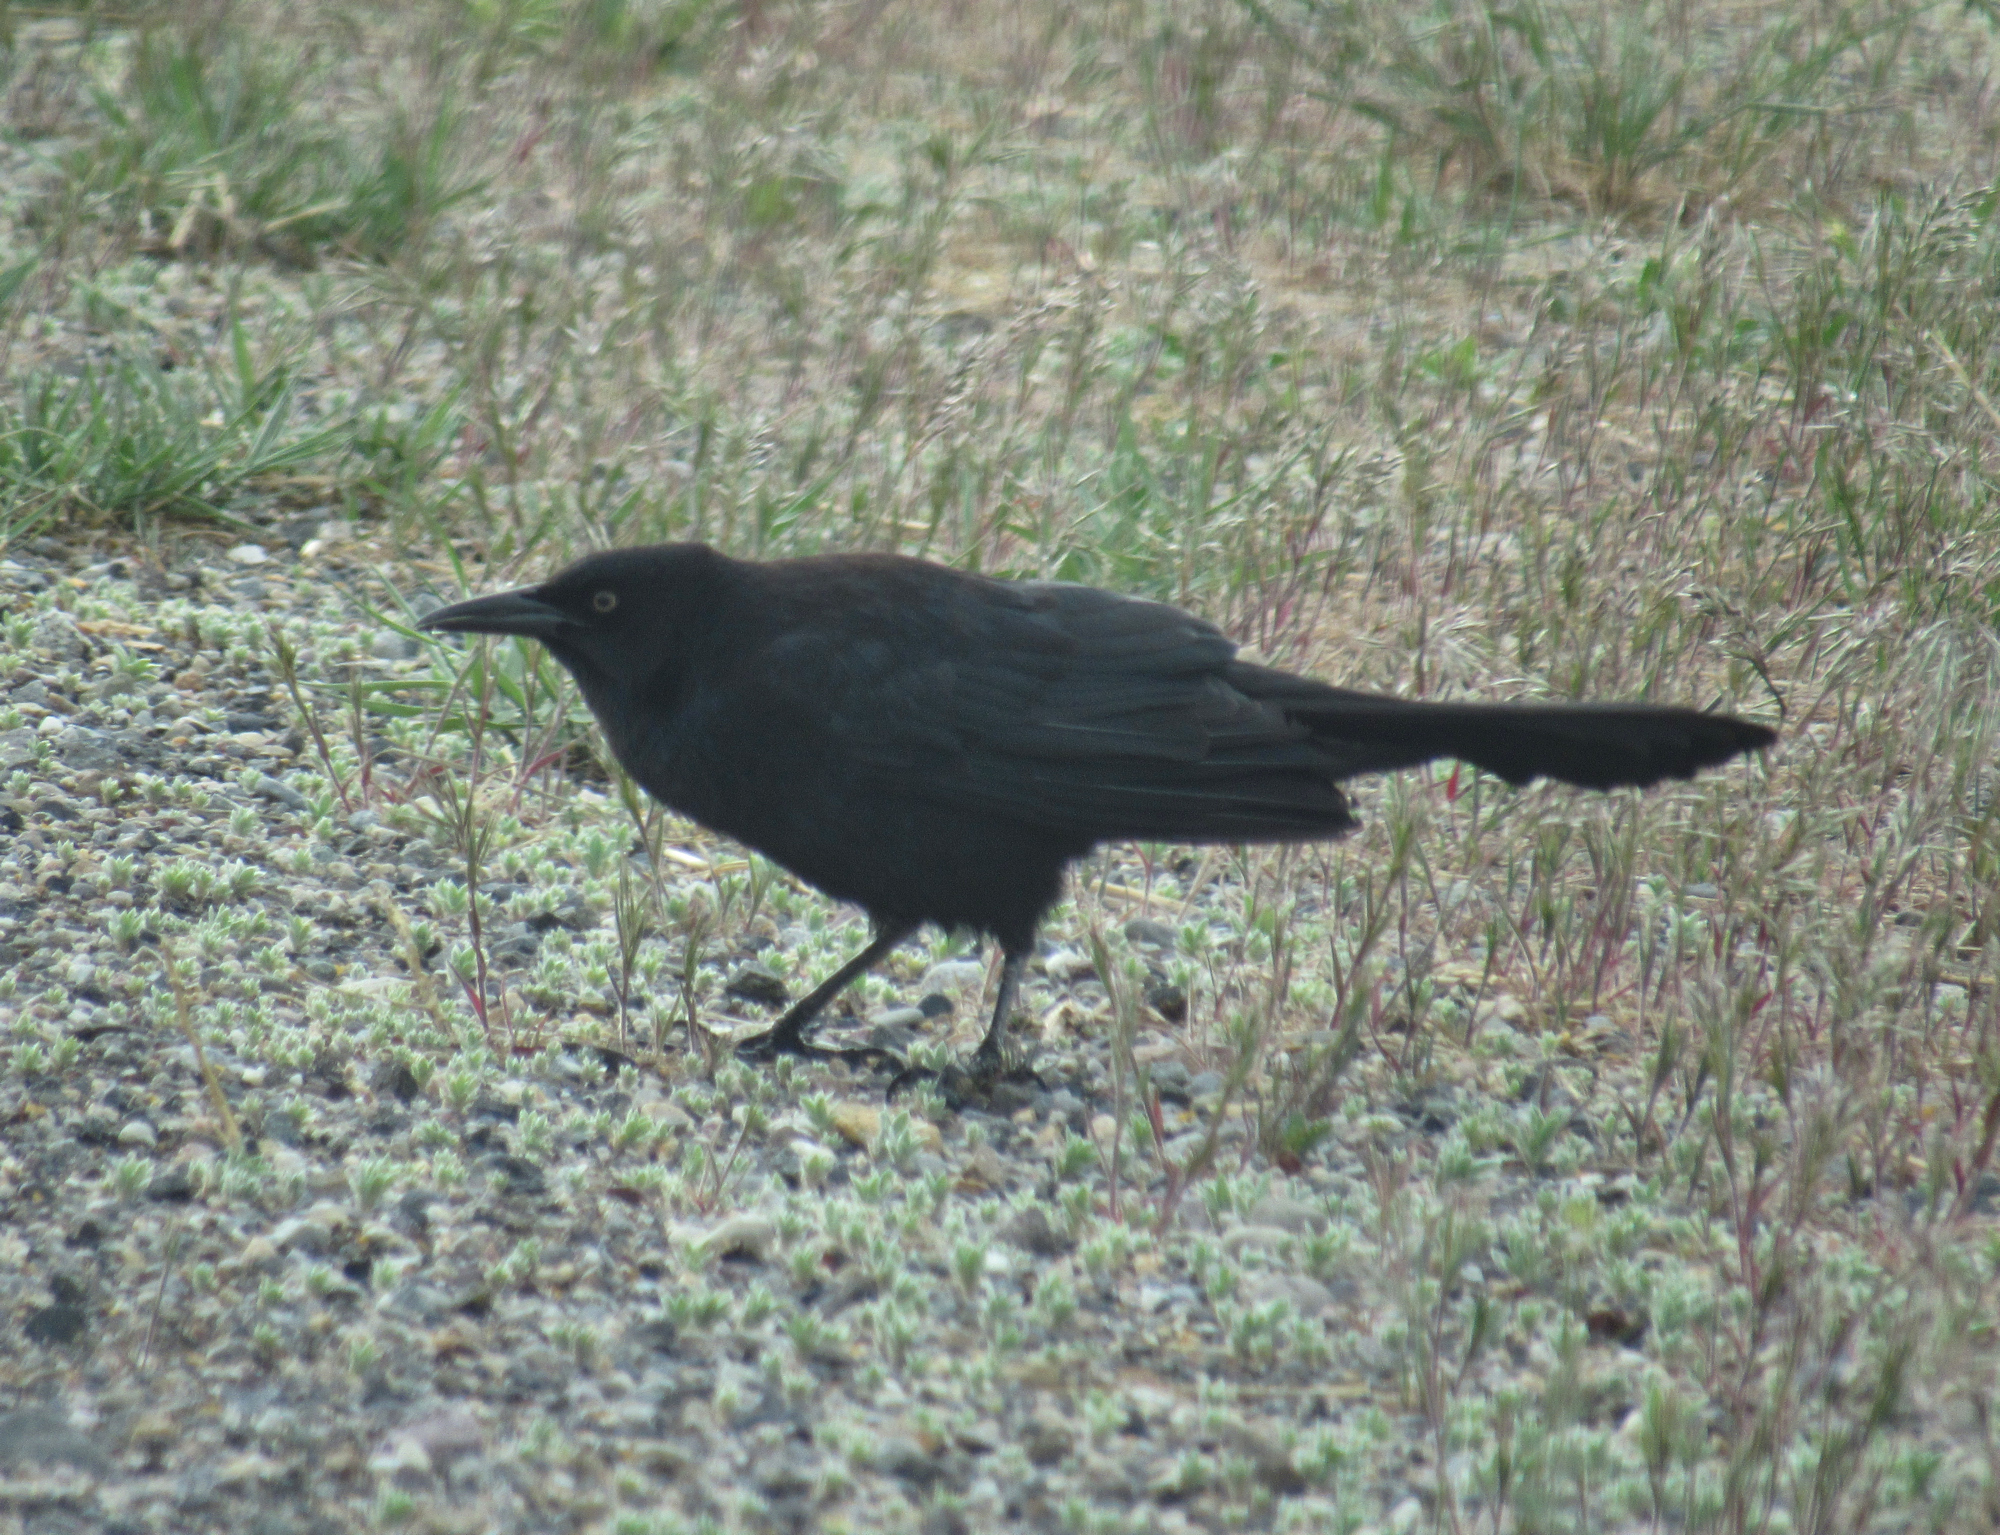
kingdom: Animalia
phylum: Chordata
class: Aves
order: Passeriformes
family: Icteridae
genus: Quiscalus
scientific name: Quiscalus quiscula
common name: Common grackle
